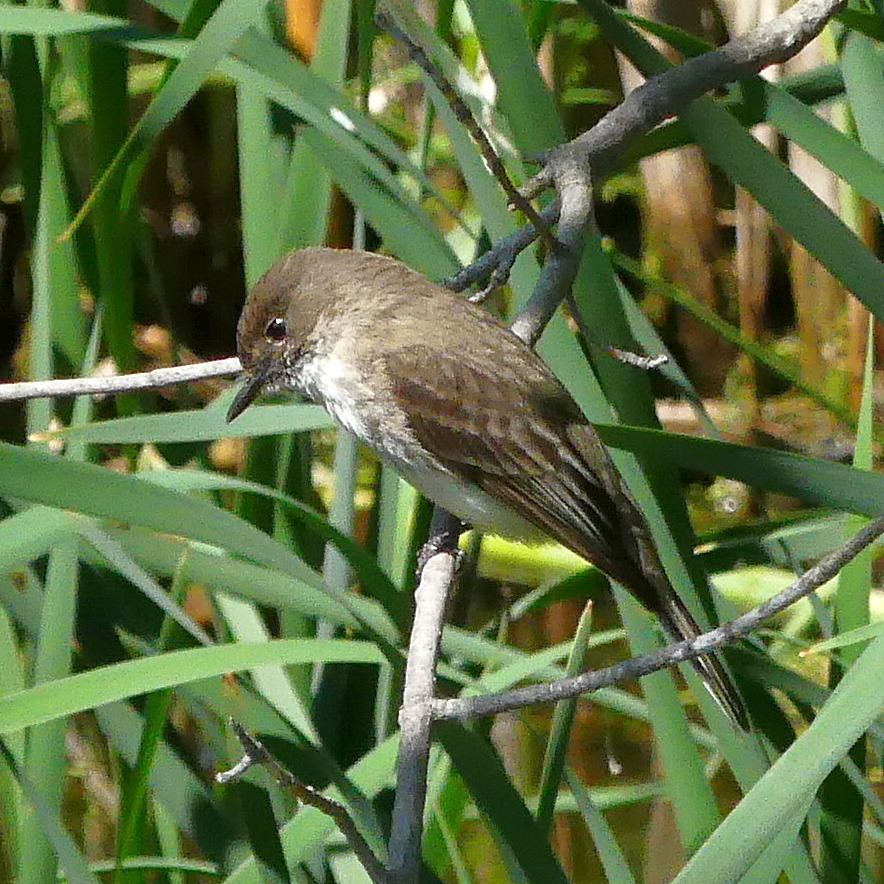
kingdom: Animalia
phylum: Chordata
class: Aves
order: Passeriformes
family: Tyrannidae
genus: Sayornis
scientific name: Sayornis phoebe
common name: Eastern phoebe
